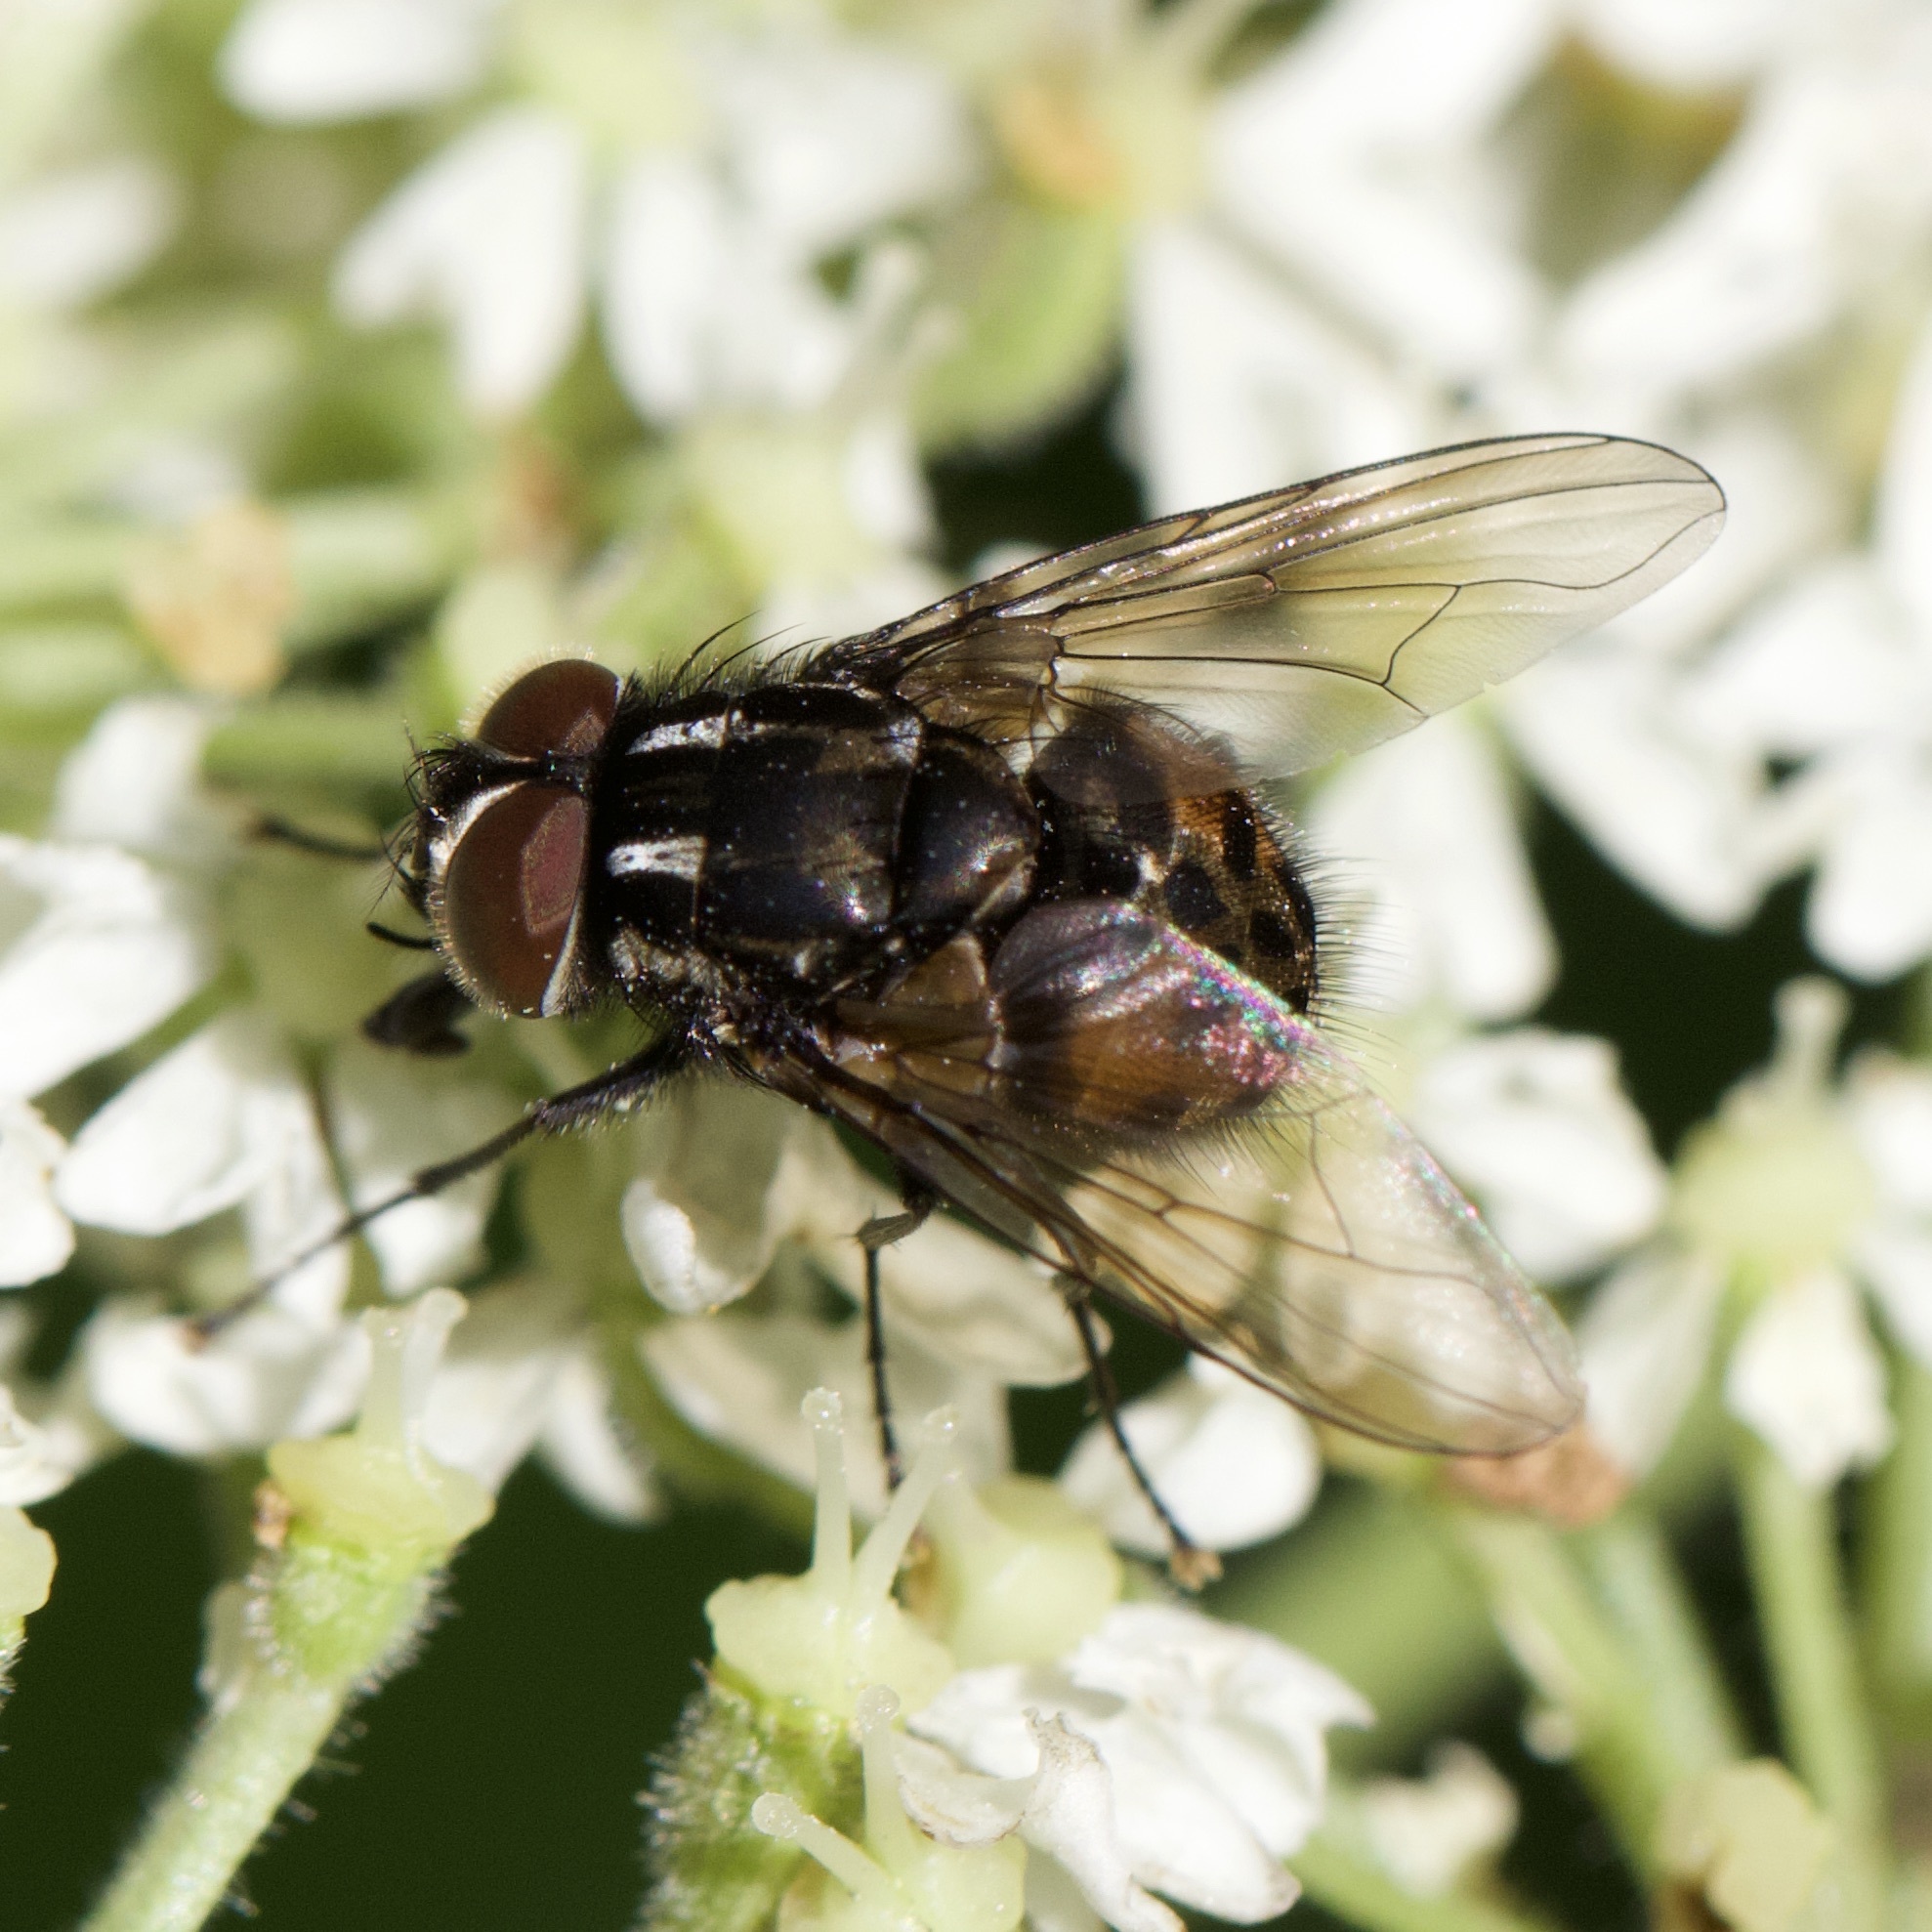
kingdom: Animalia
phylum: Arthropoda
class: Insecta
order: Diptera
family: Muscidae
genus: Graphomya
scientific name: Graphomya maculata
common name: Muscid fly
